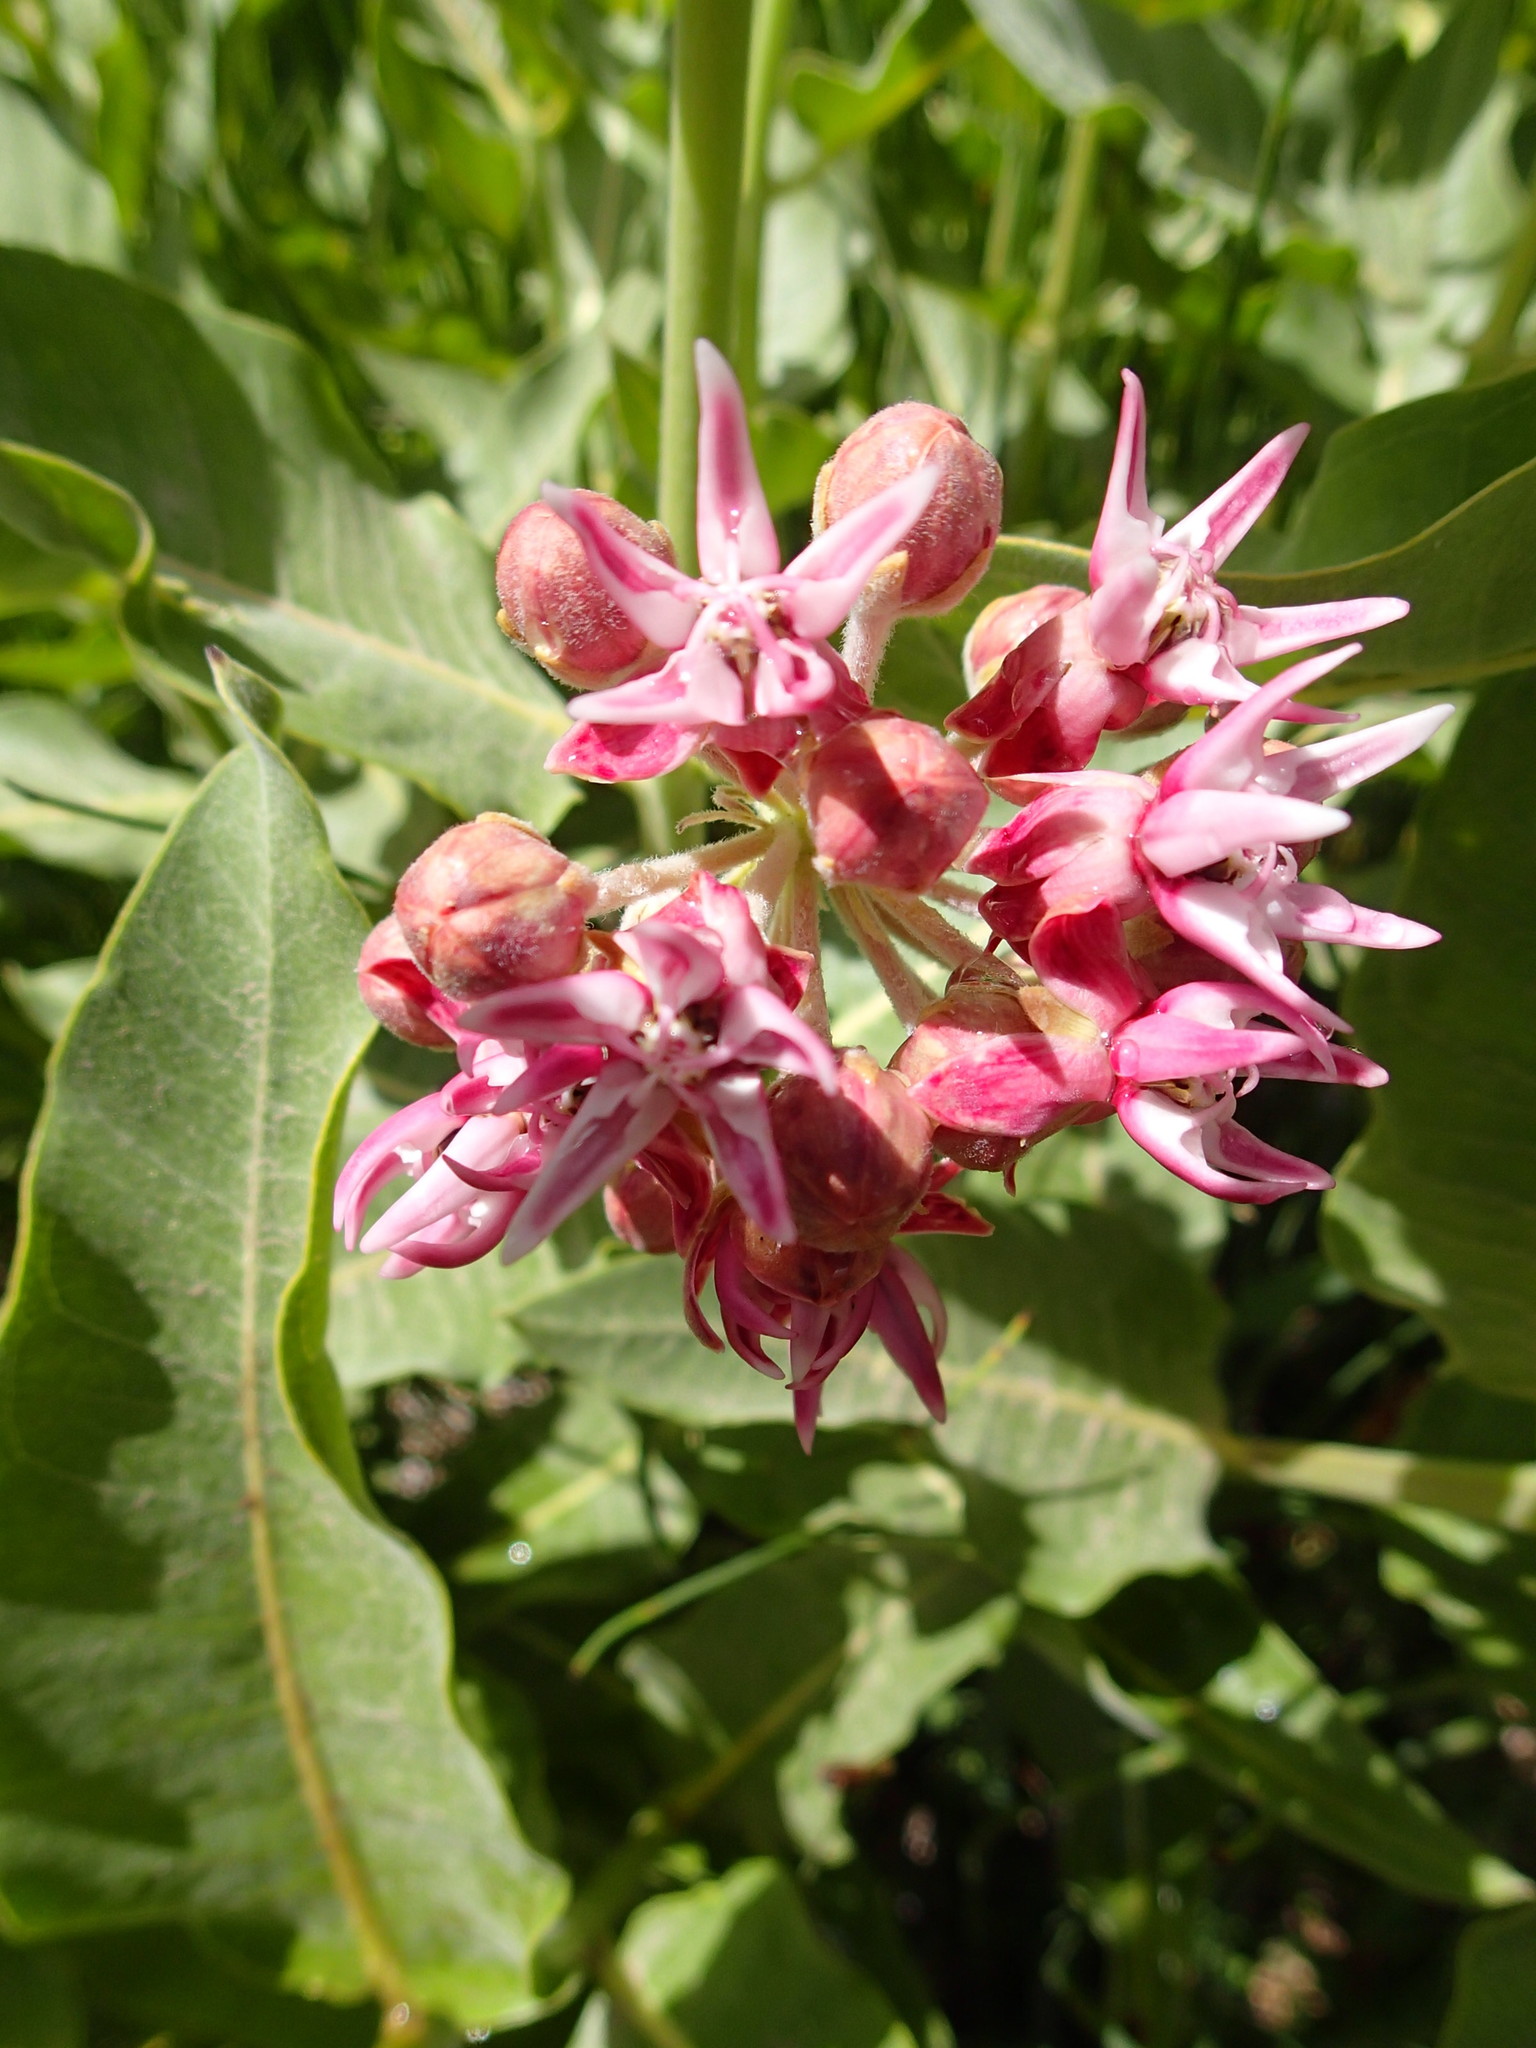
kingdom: Plantae
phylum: Tracheophyta
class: Magnoliopsida
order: Gentianales
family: Apocynaceae
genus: Asclepias
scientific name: Asclepias speciosa
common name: Showy milkweed
